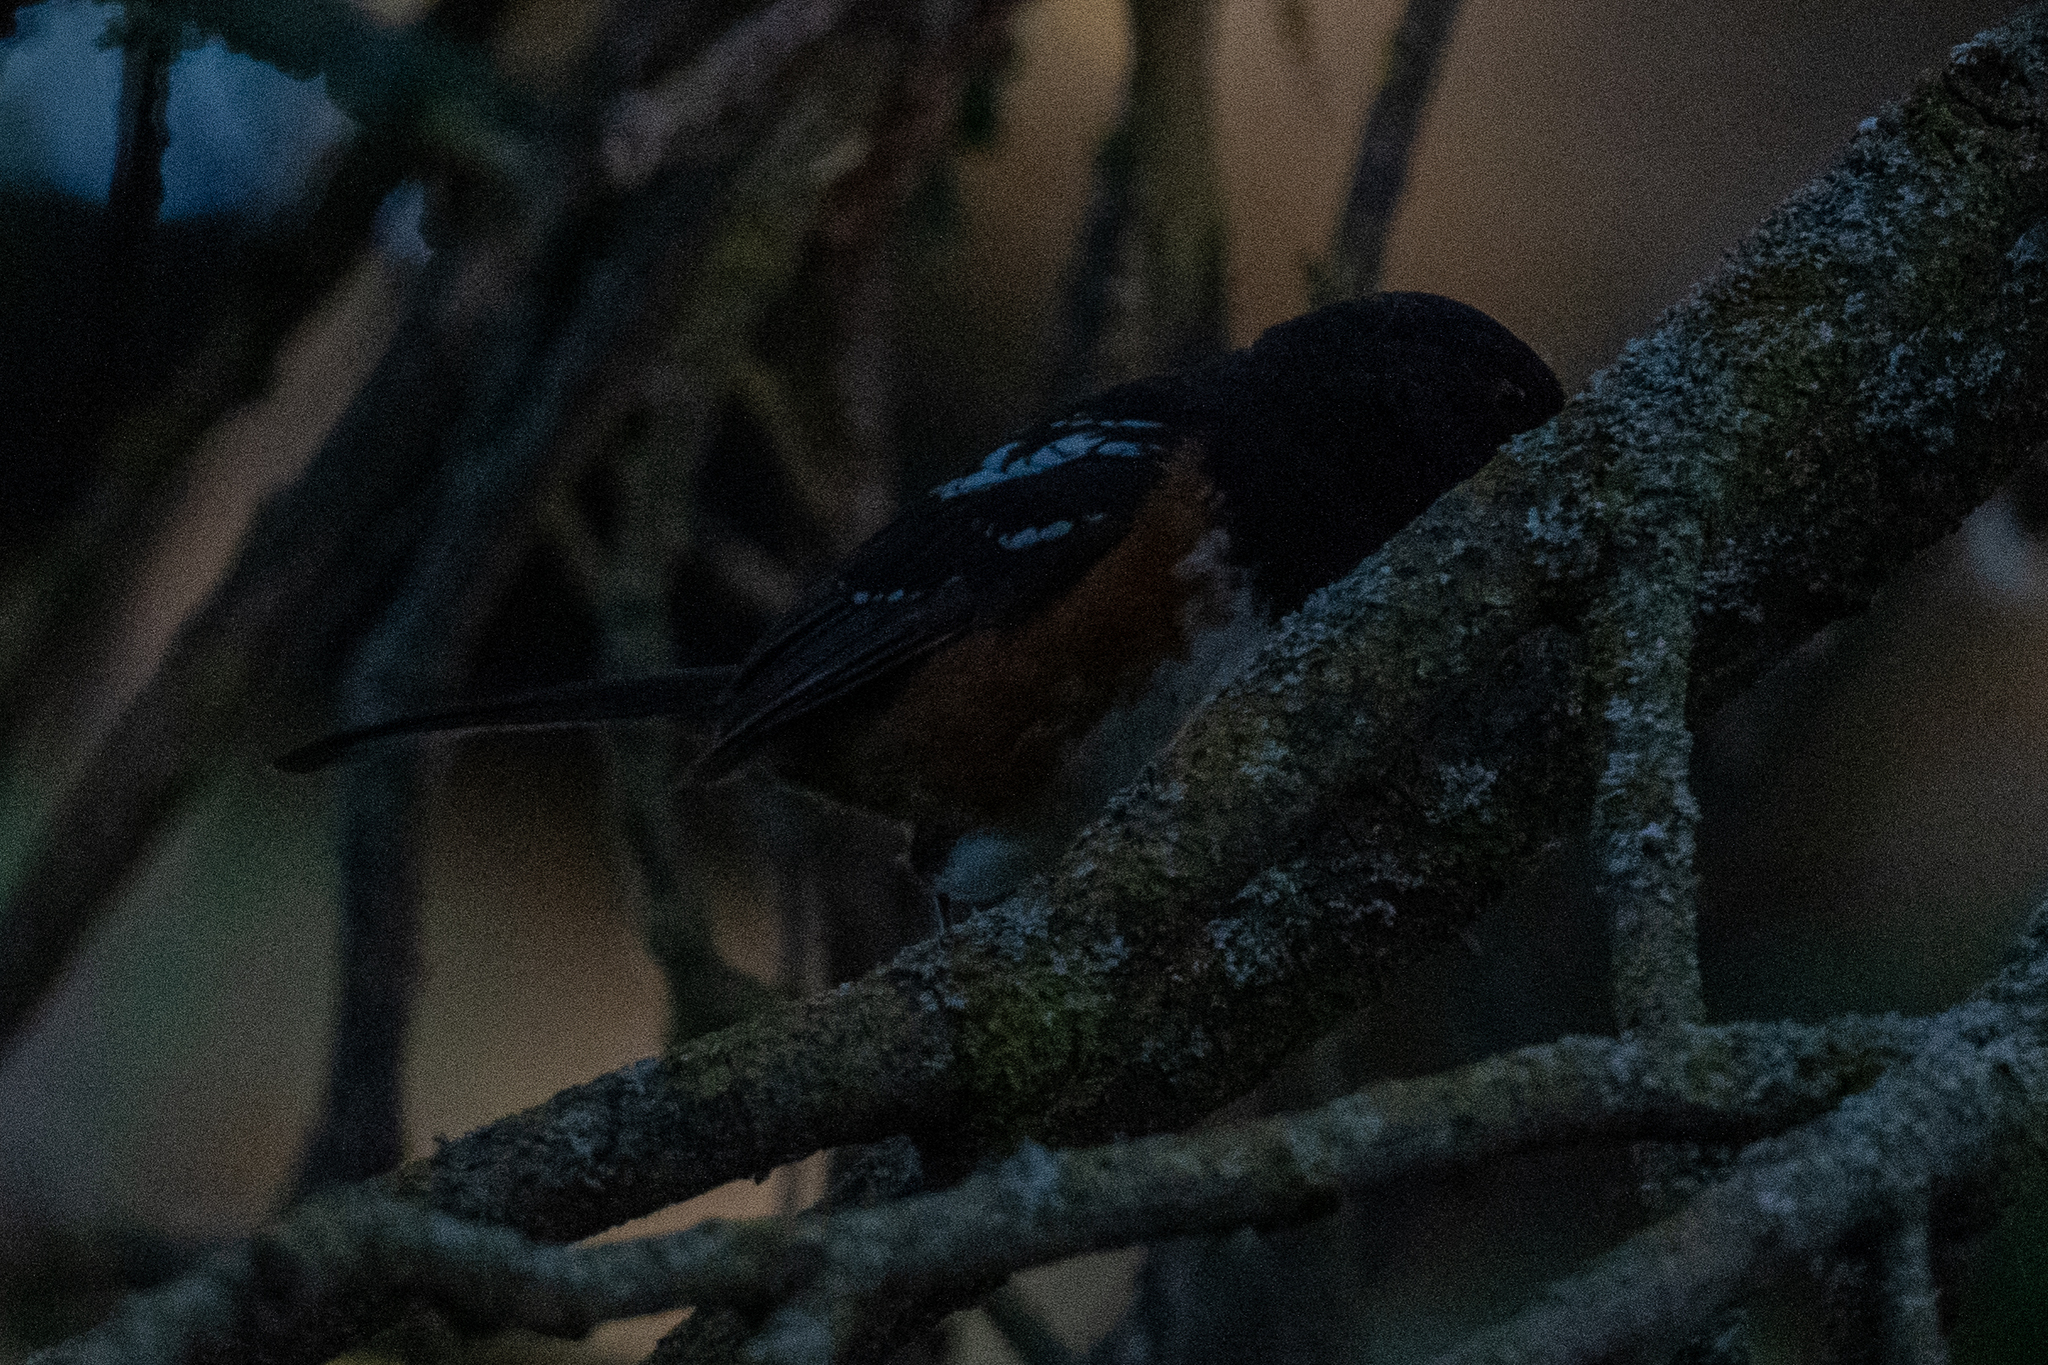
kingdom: Animalia
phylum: Chordata
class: Aves
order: Passeriformes
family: Passerellidae
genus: Pipilo
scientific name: Pipilo maculatus
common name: Spotted towhee
